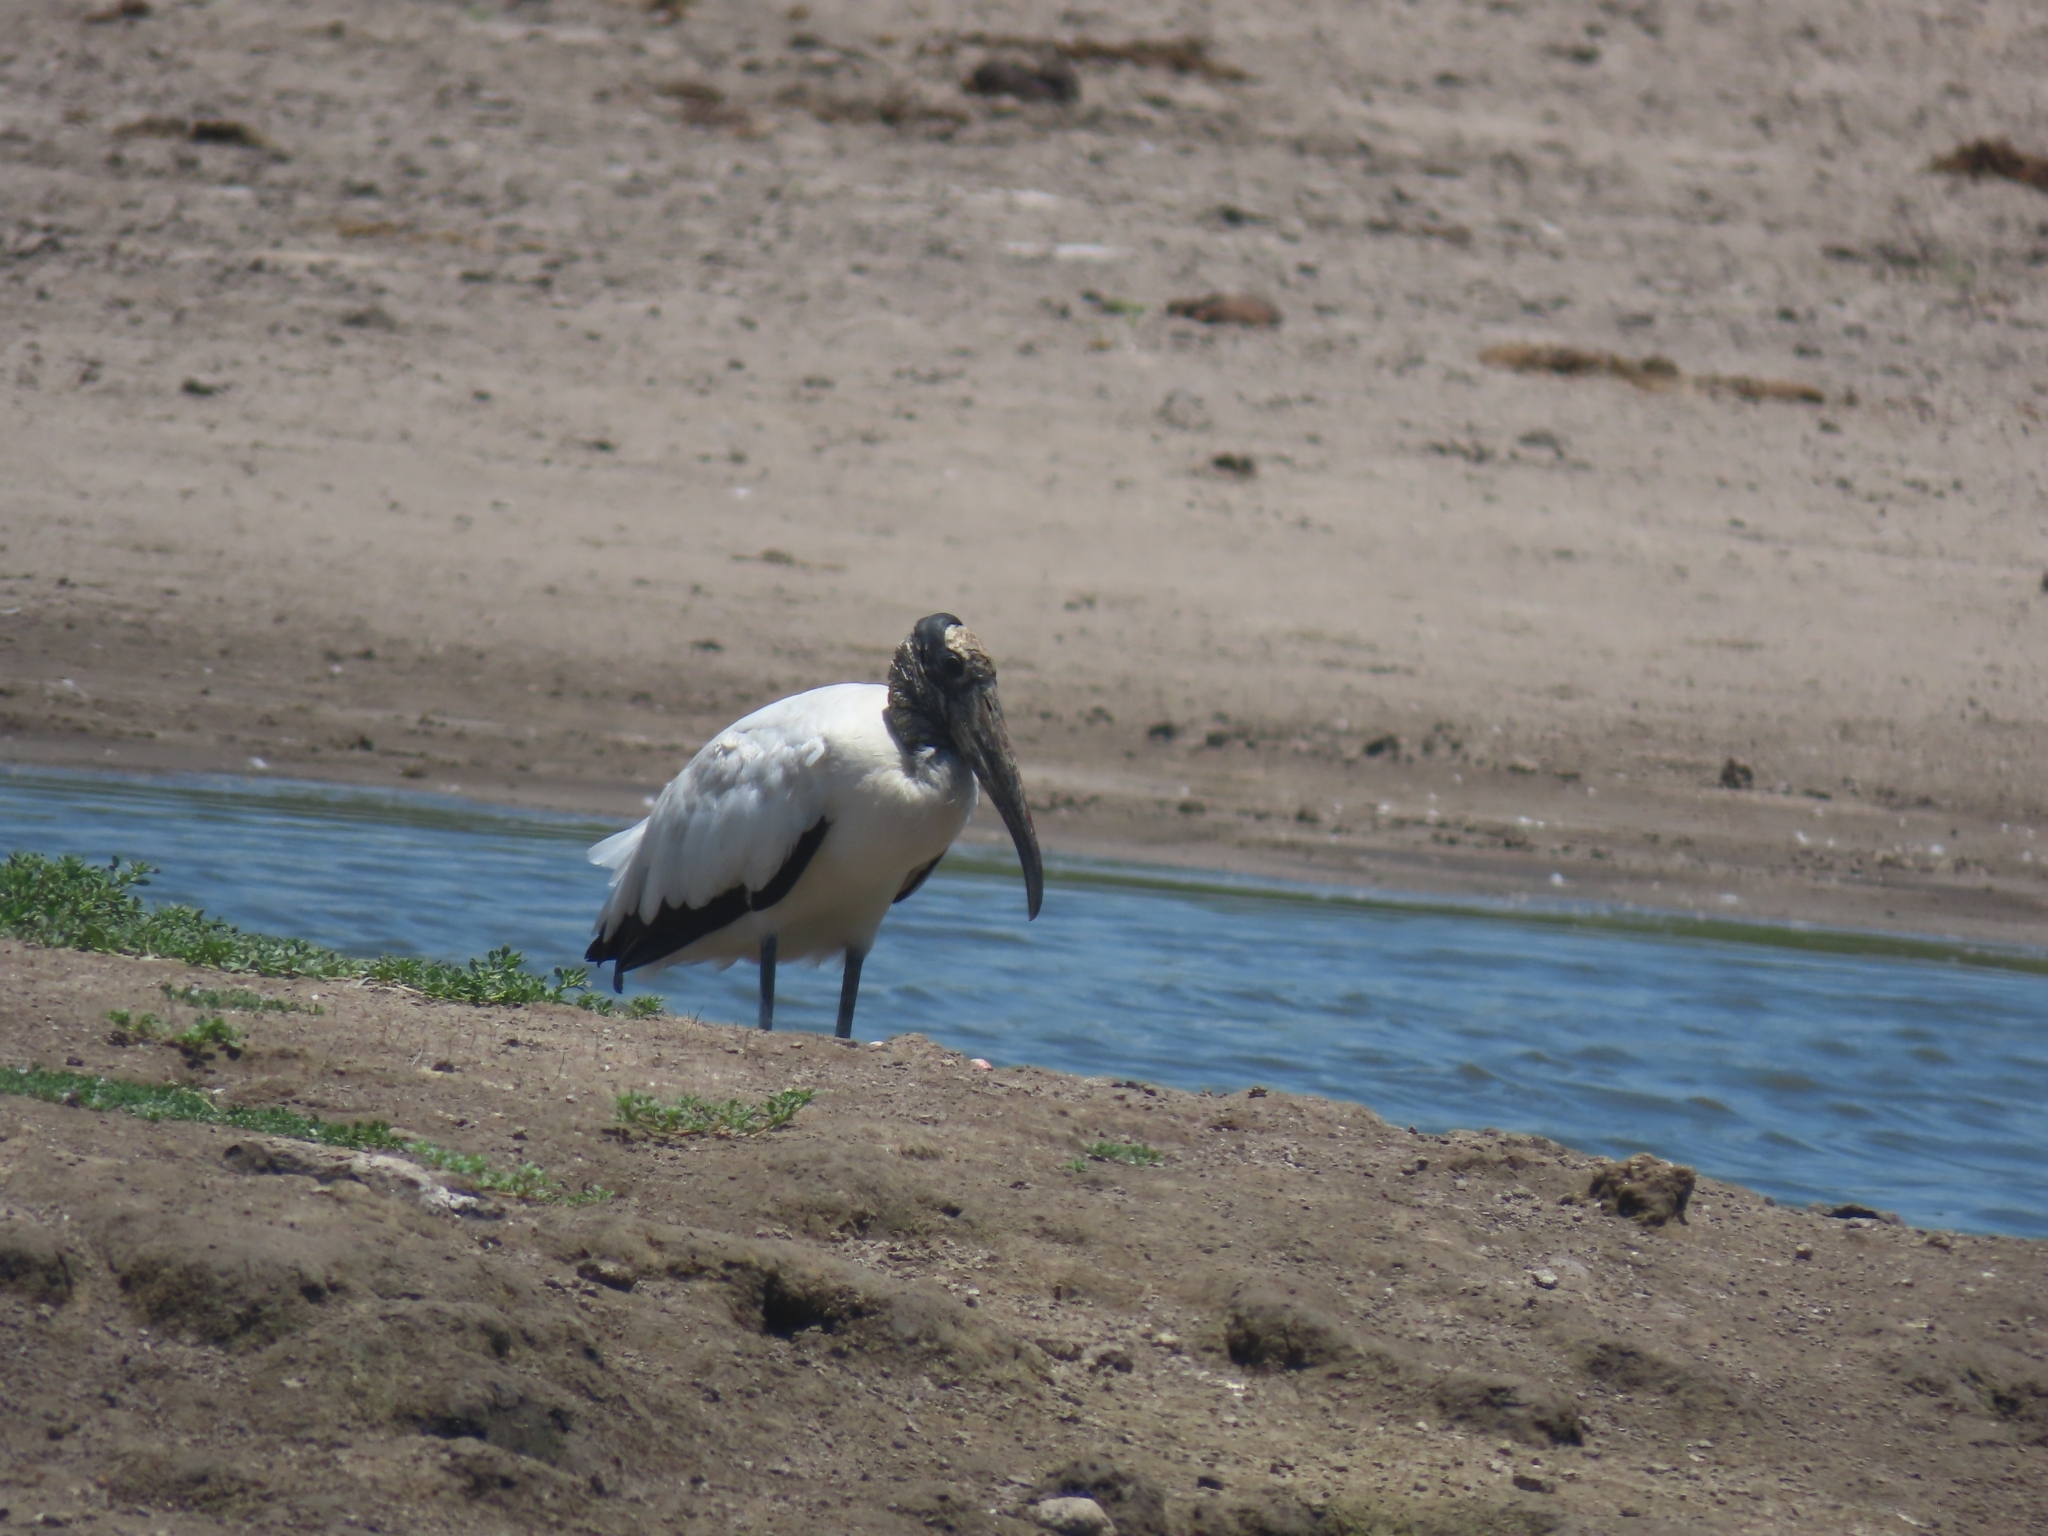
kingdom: Animalia
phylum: Chordata
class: Aves
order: Ciconiiformes
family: Ciconiidae
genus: Mycteria
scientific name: Mycteria americana
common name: Wood stork
